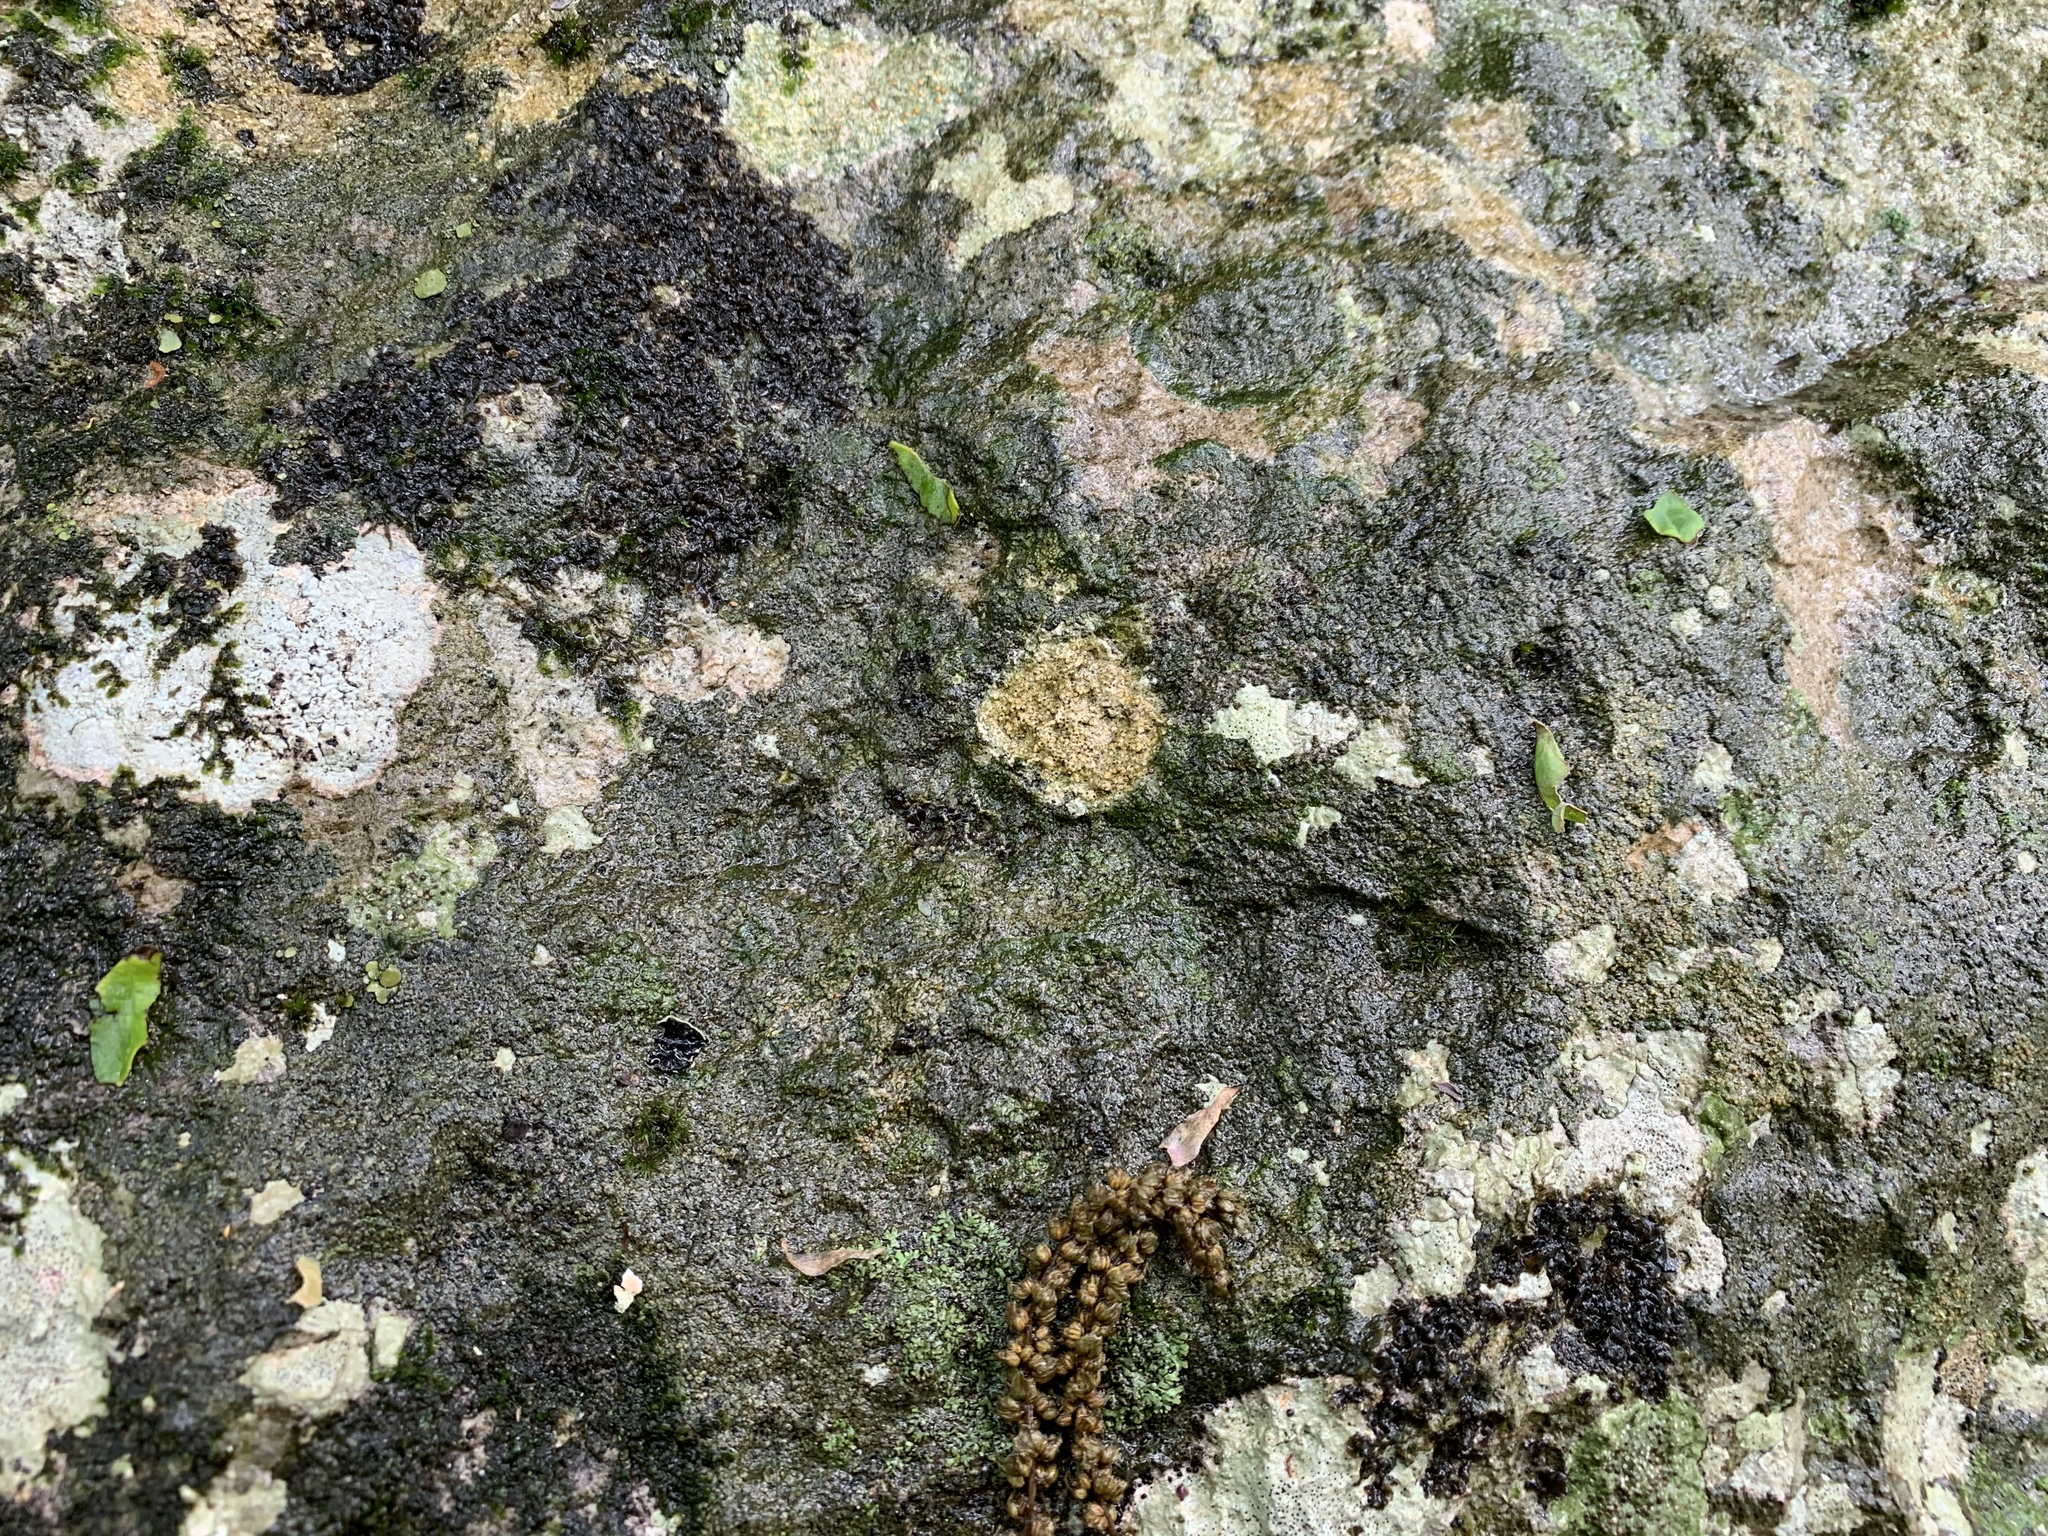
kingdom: Fungi
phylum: Ascomycota
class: Lecanoromycetes
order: Ostropales
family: Stictidaceae
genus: Petractis
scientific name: Petractis farlowii
